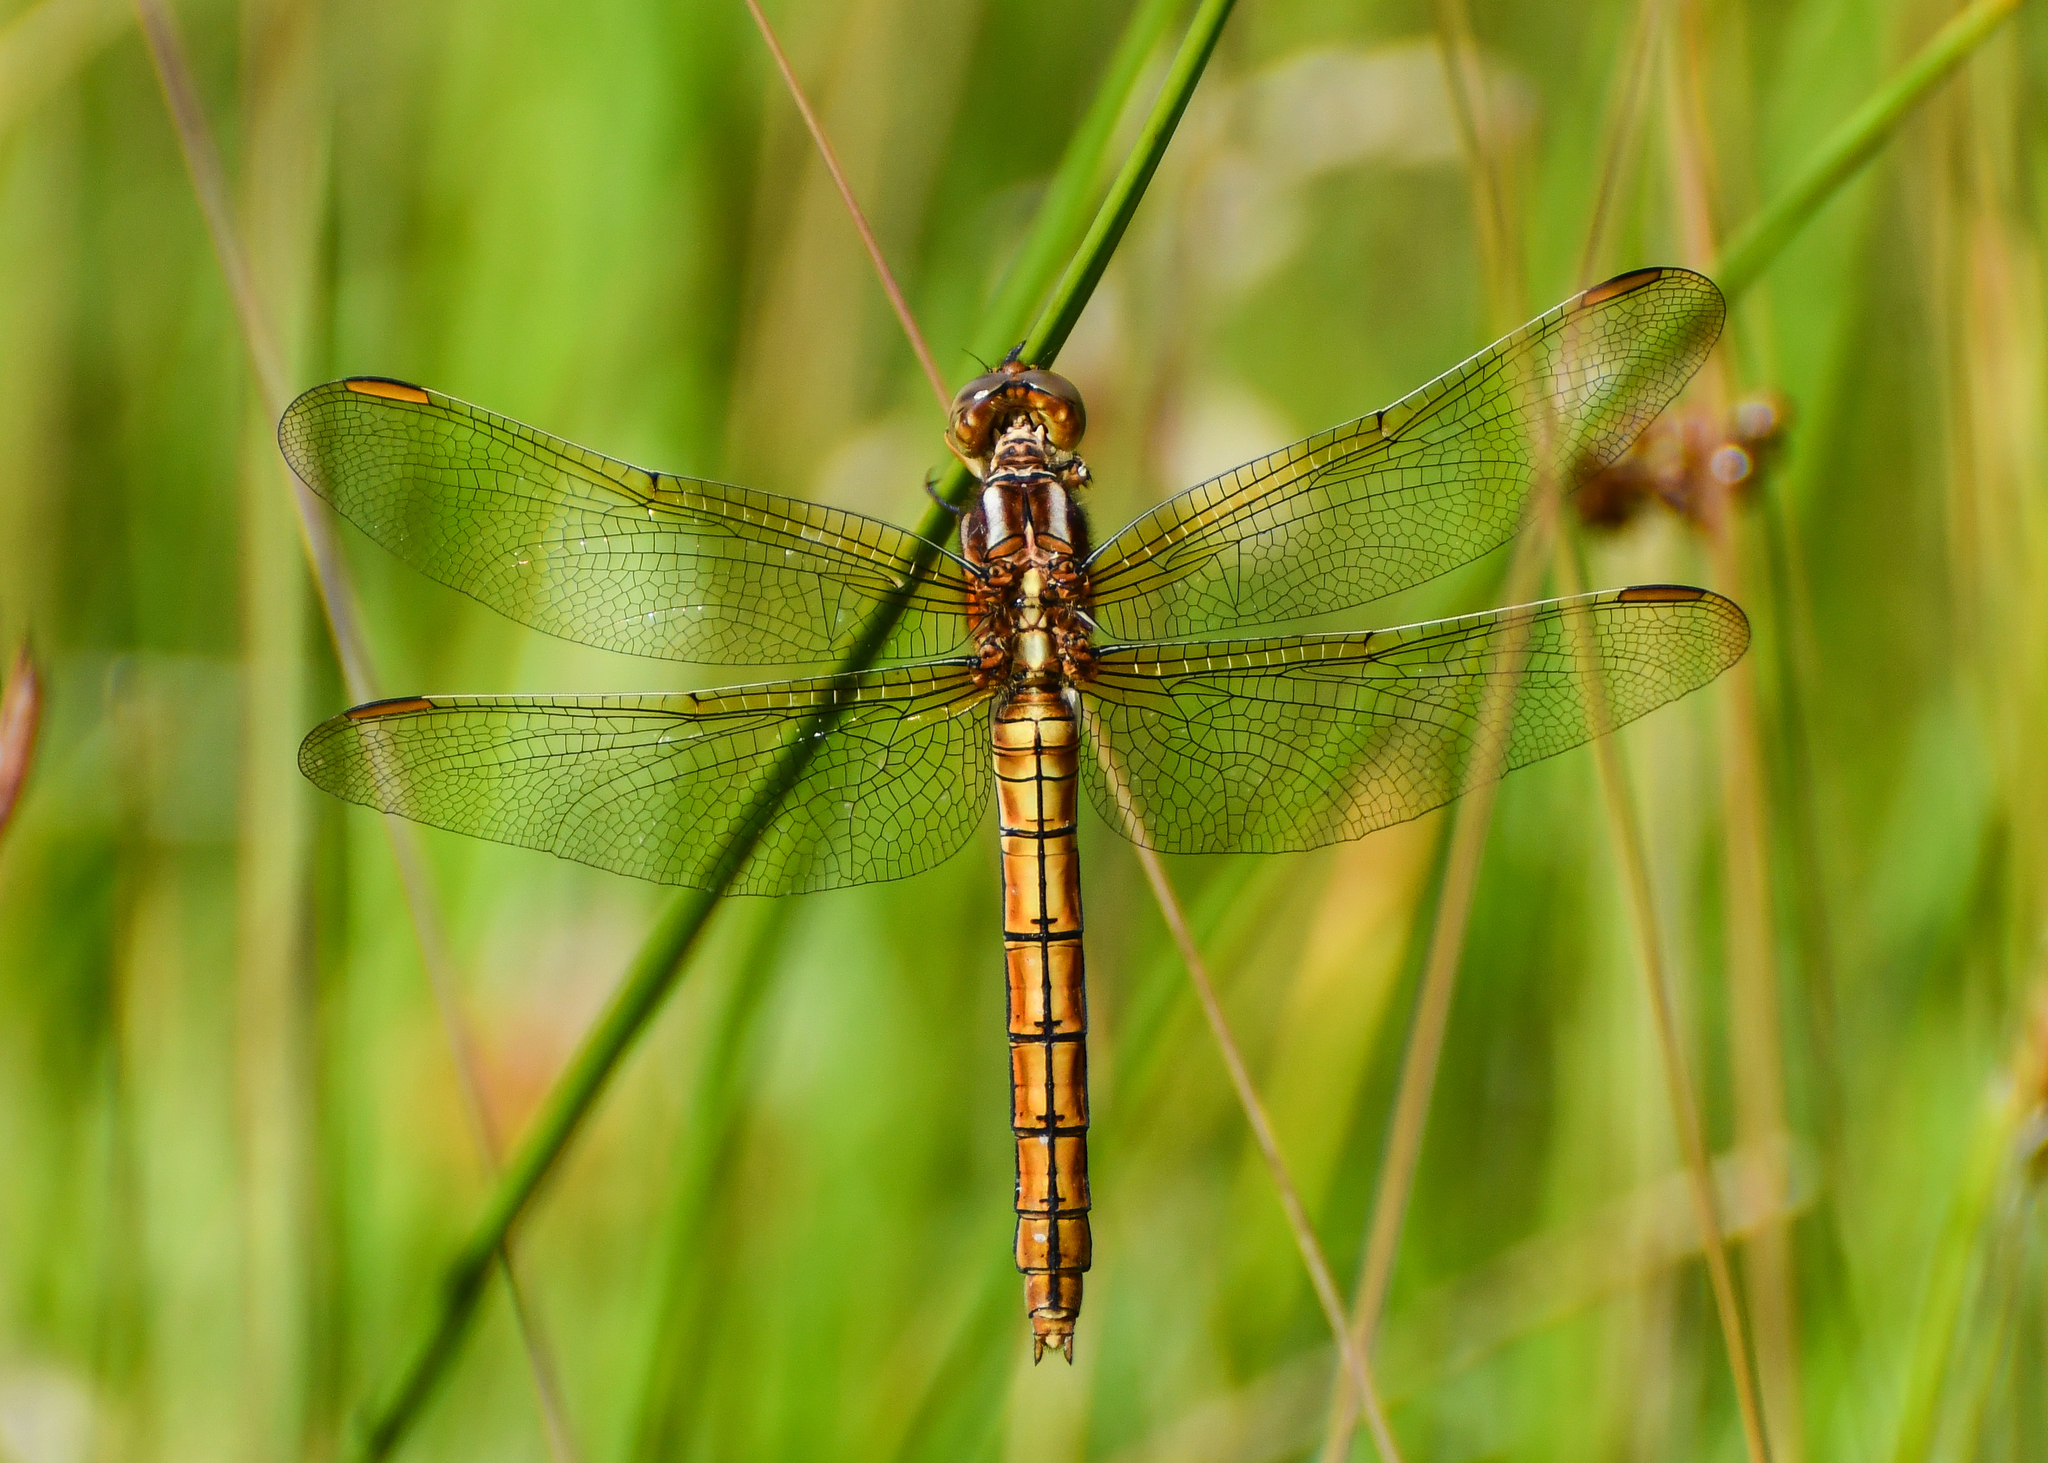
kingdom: Animalia
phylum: Arthropoda
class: Insecta
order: Odonata
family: Libellulidae
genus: Orthetrum
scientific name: Orthetrum coerulescens
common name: Keeled skimmer
